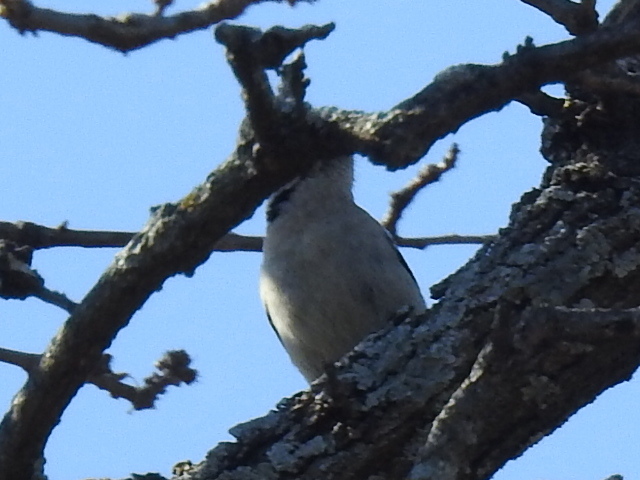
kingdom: Animalia
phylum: Chordata
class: Aves
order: Piciformes
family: Picidae
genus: Dryobates
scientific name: Dryobates pubescens
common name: Downy woodpecker
